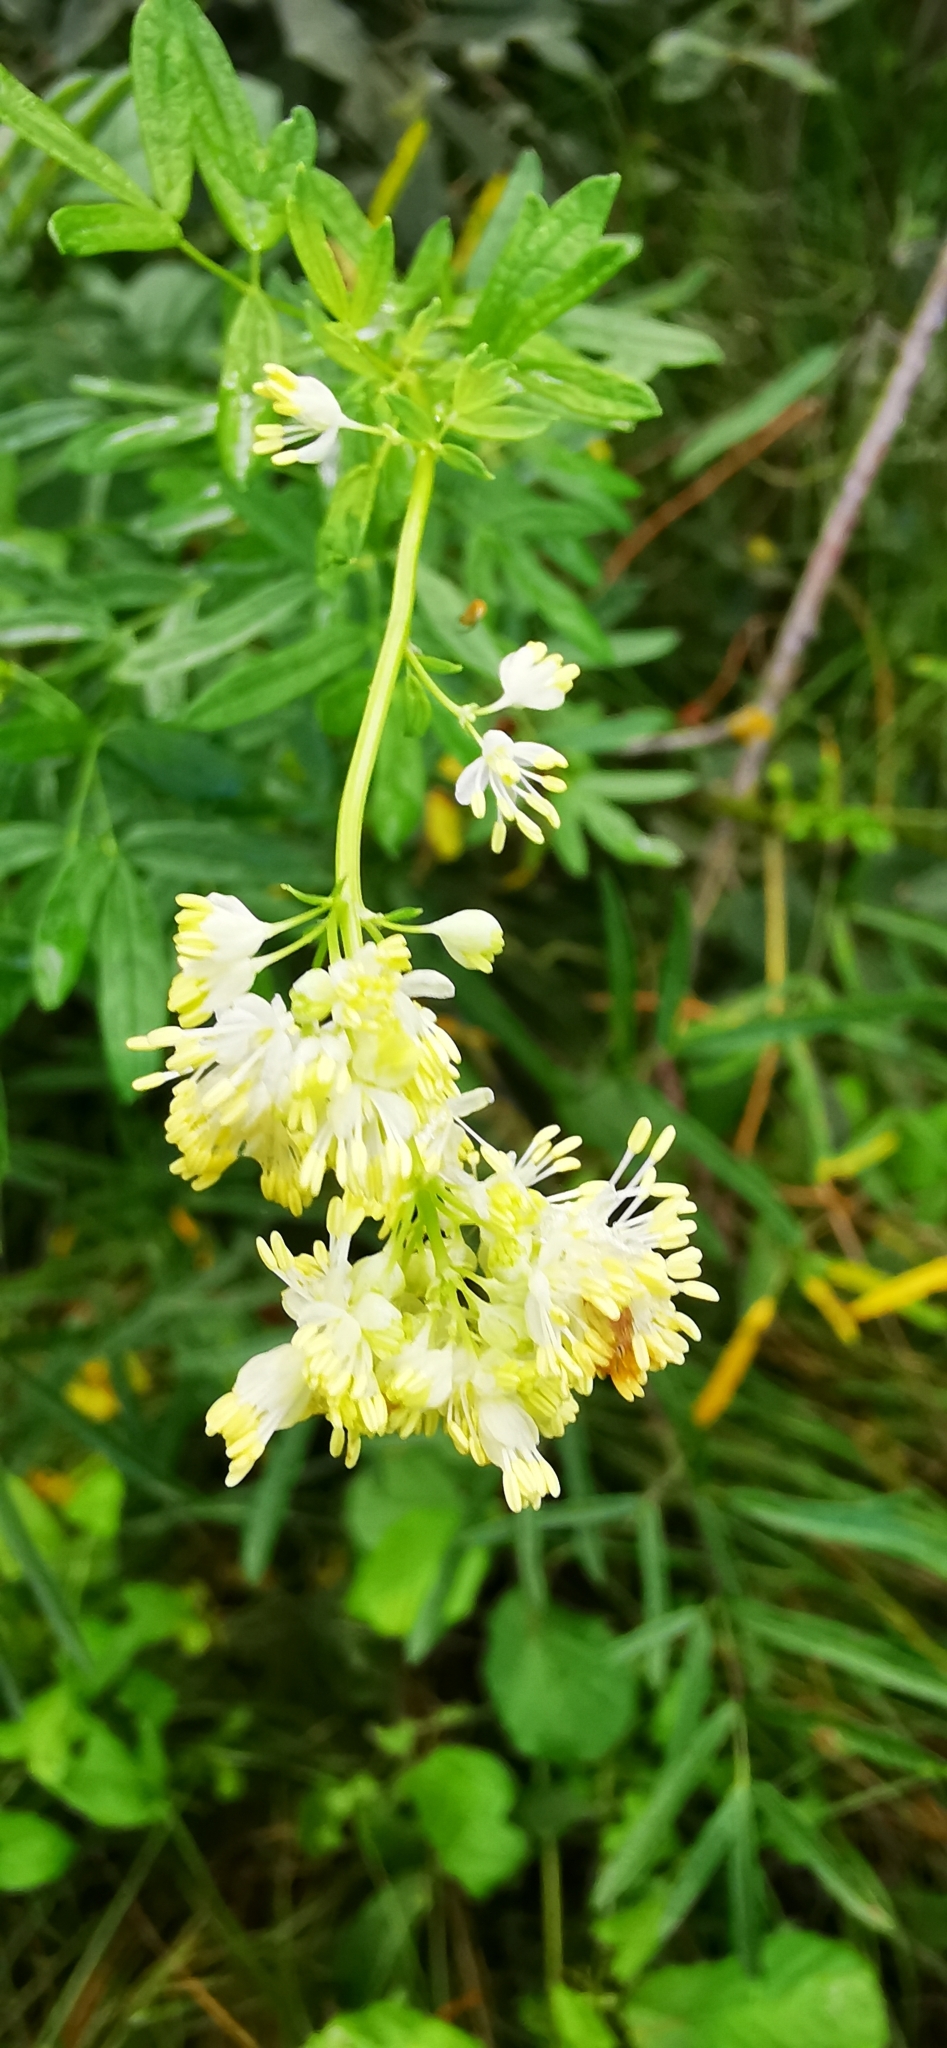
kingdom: Plantae
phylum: Tracheophyta
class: Magnoliopsida
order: Ranunculales
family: Ranunculaceae
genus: Thalictrum
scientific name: Thalictrum lucidum
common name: Shining meadow-rue
